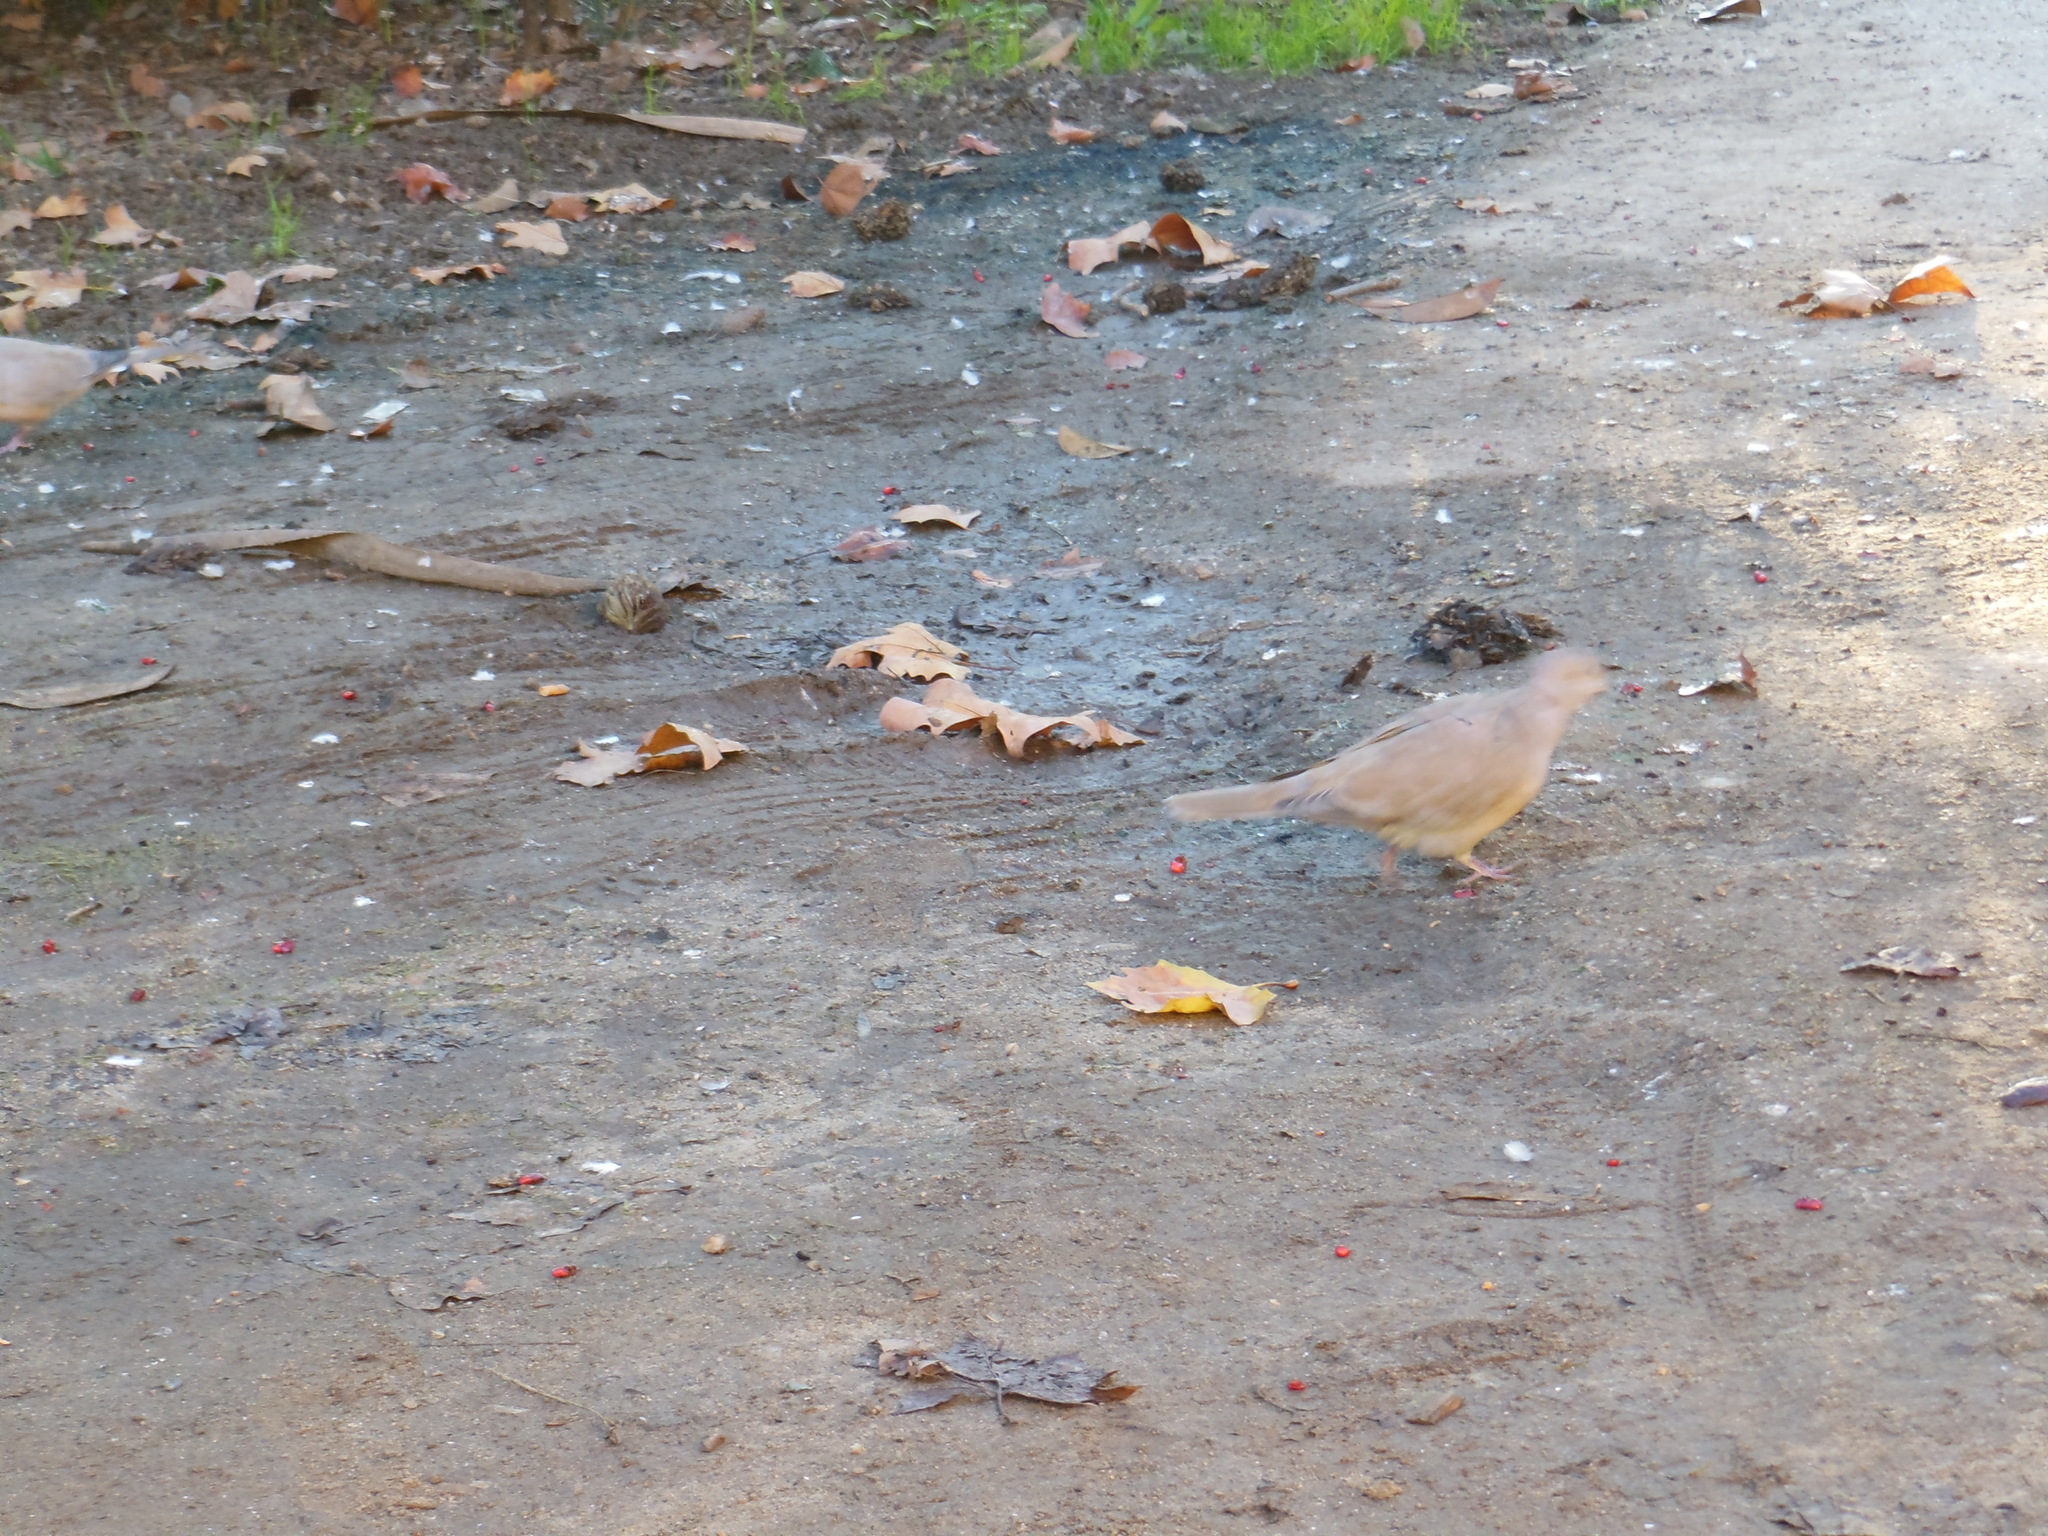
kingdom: Animalia
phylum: Chordata
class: Aves
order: Columbiformes
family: Columbidae
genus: Streptopelia
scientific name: Streptopelia decaocto
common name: Eurasian collared dove
